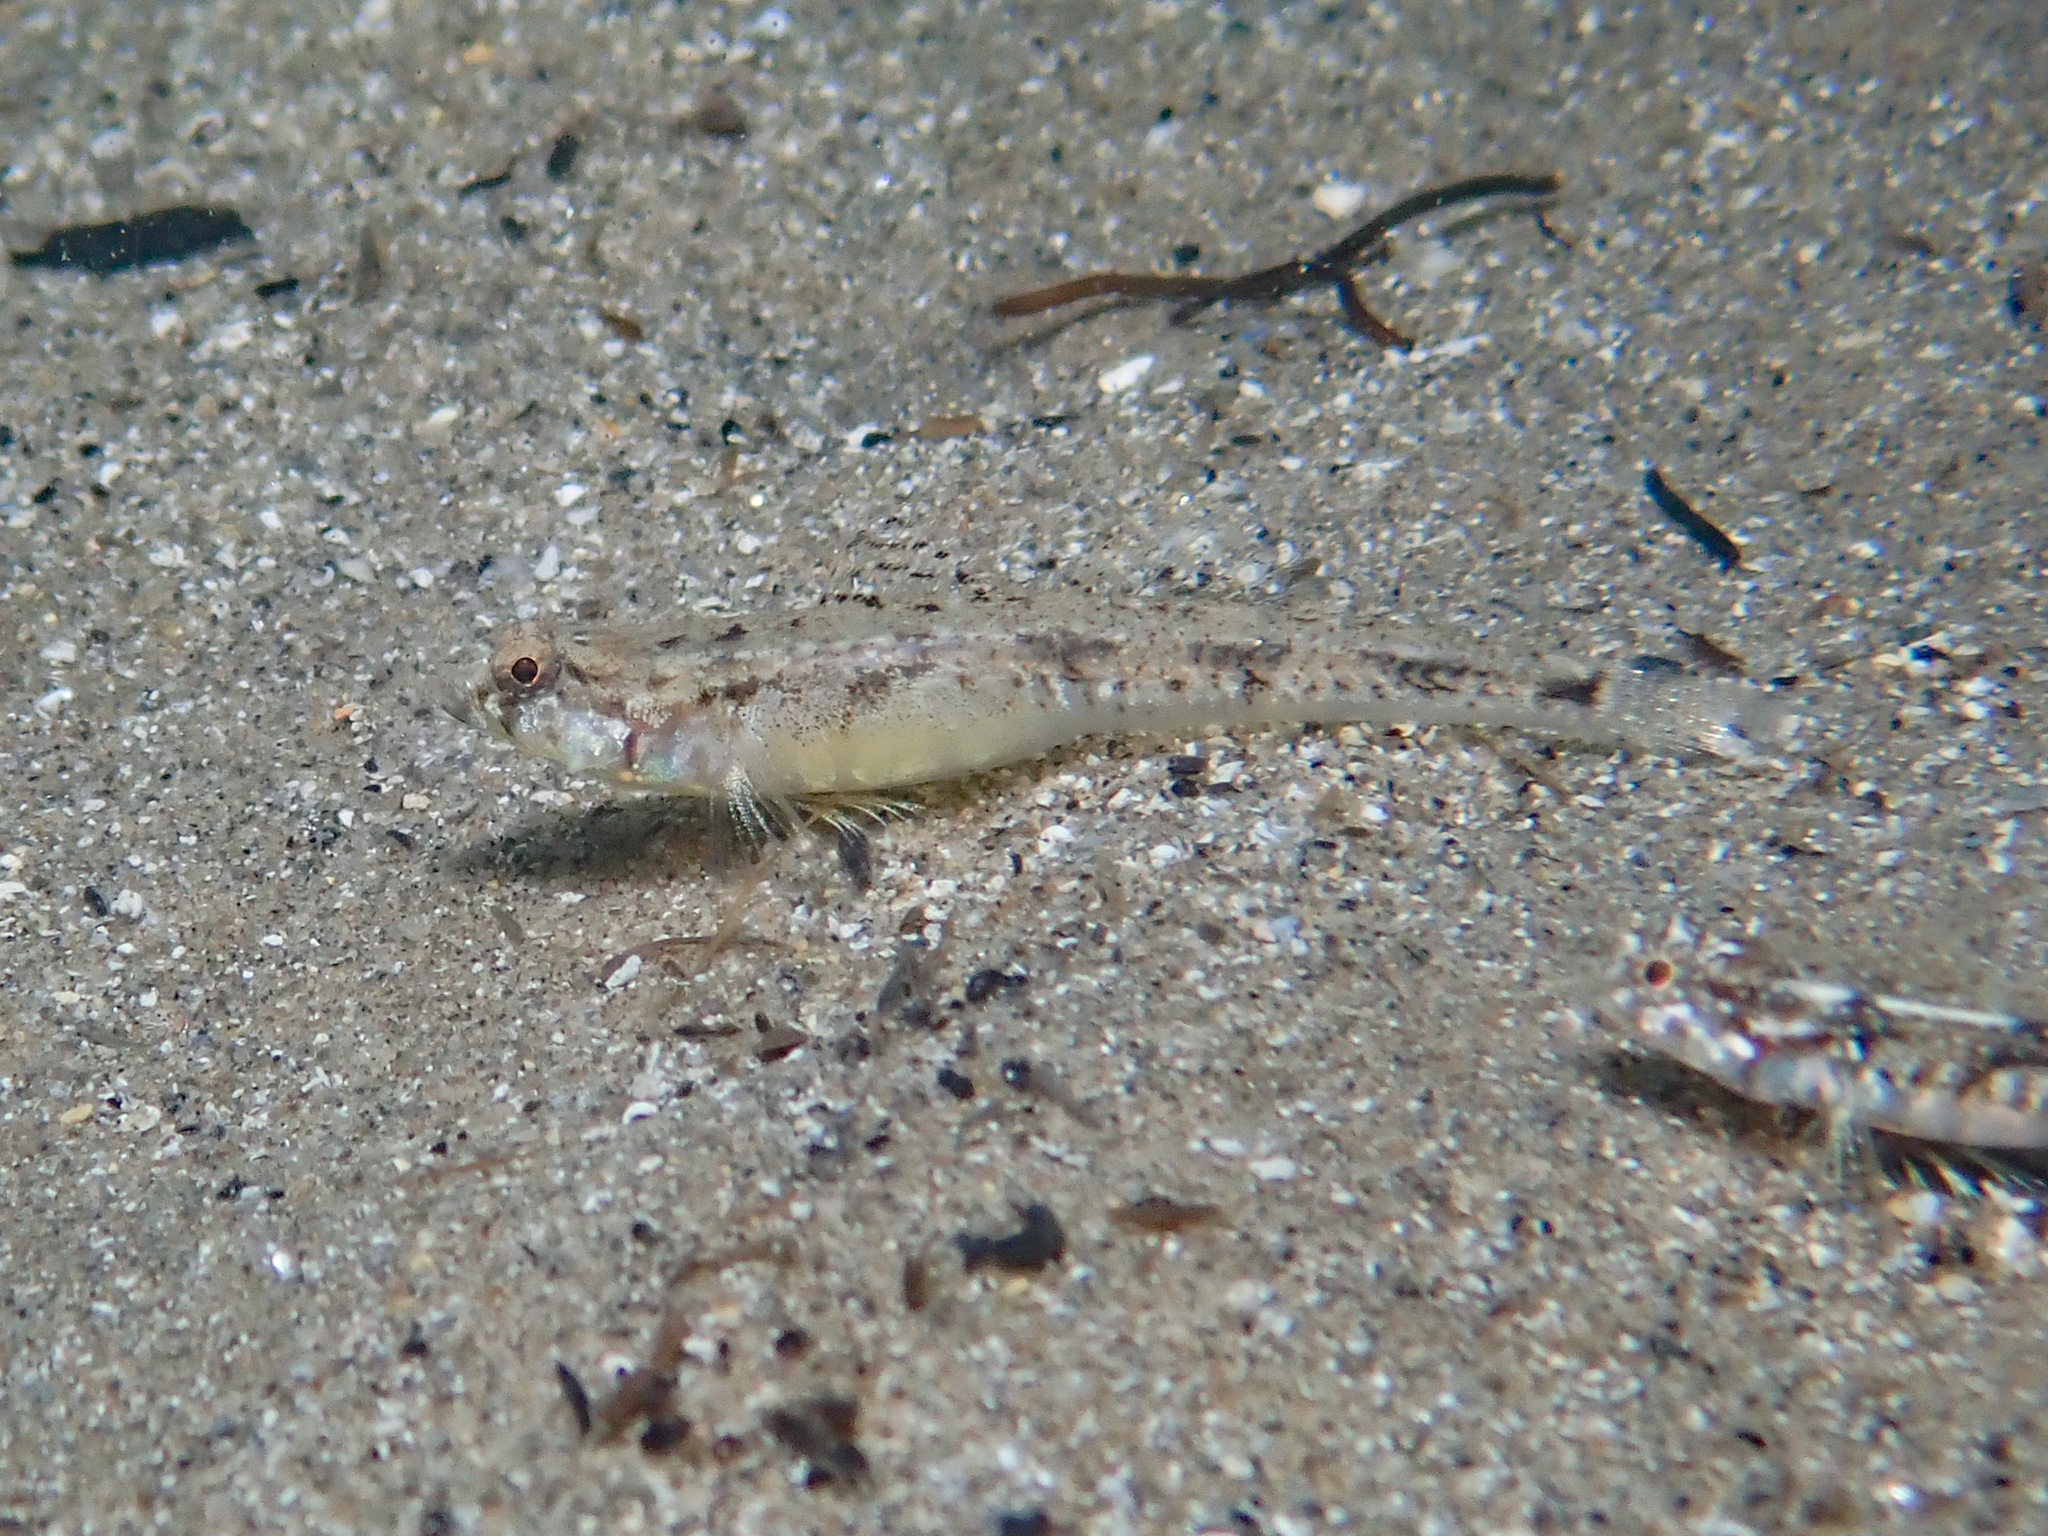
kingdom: Animalia
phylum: Chordata
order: Perciformes
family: Gobiidae
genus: Pomatoschistus
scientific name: Pomatoschistus bathi
